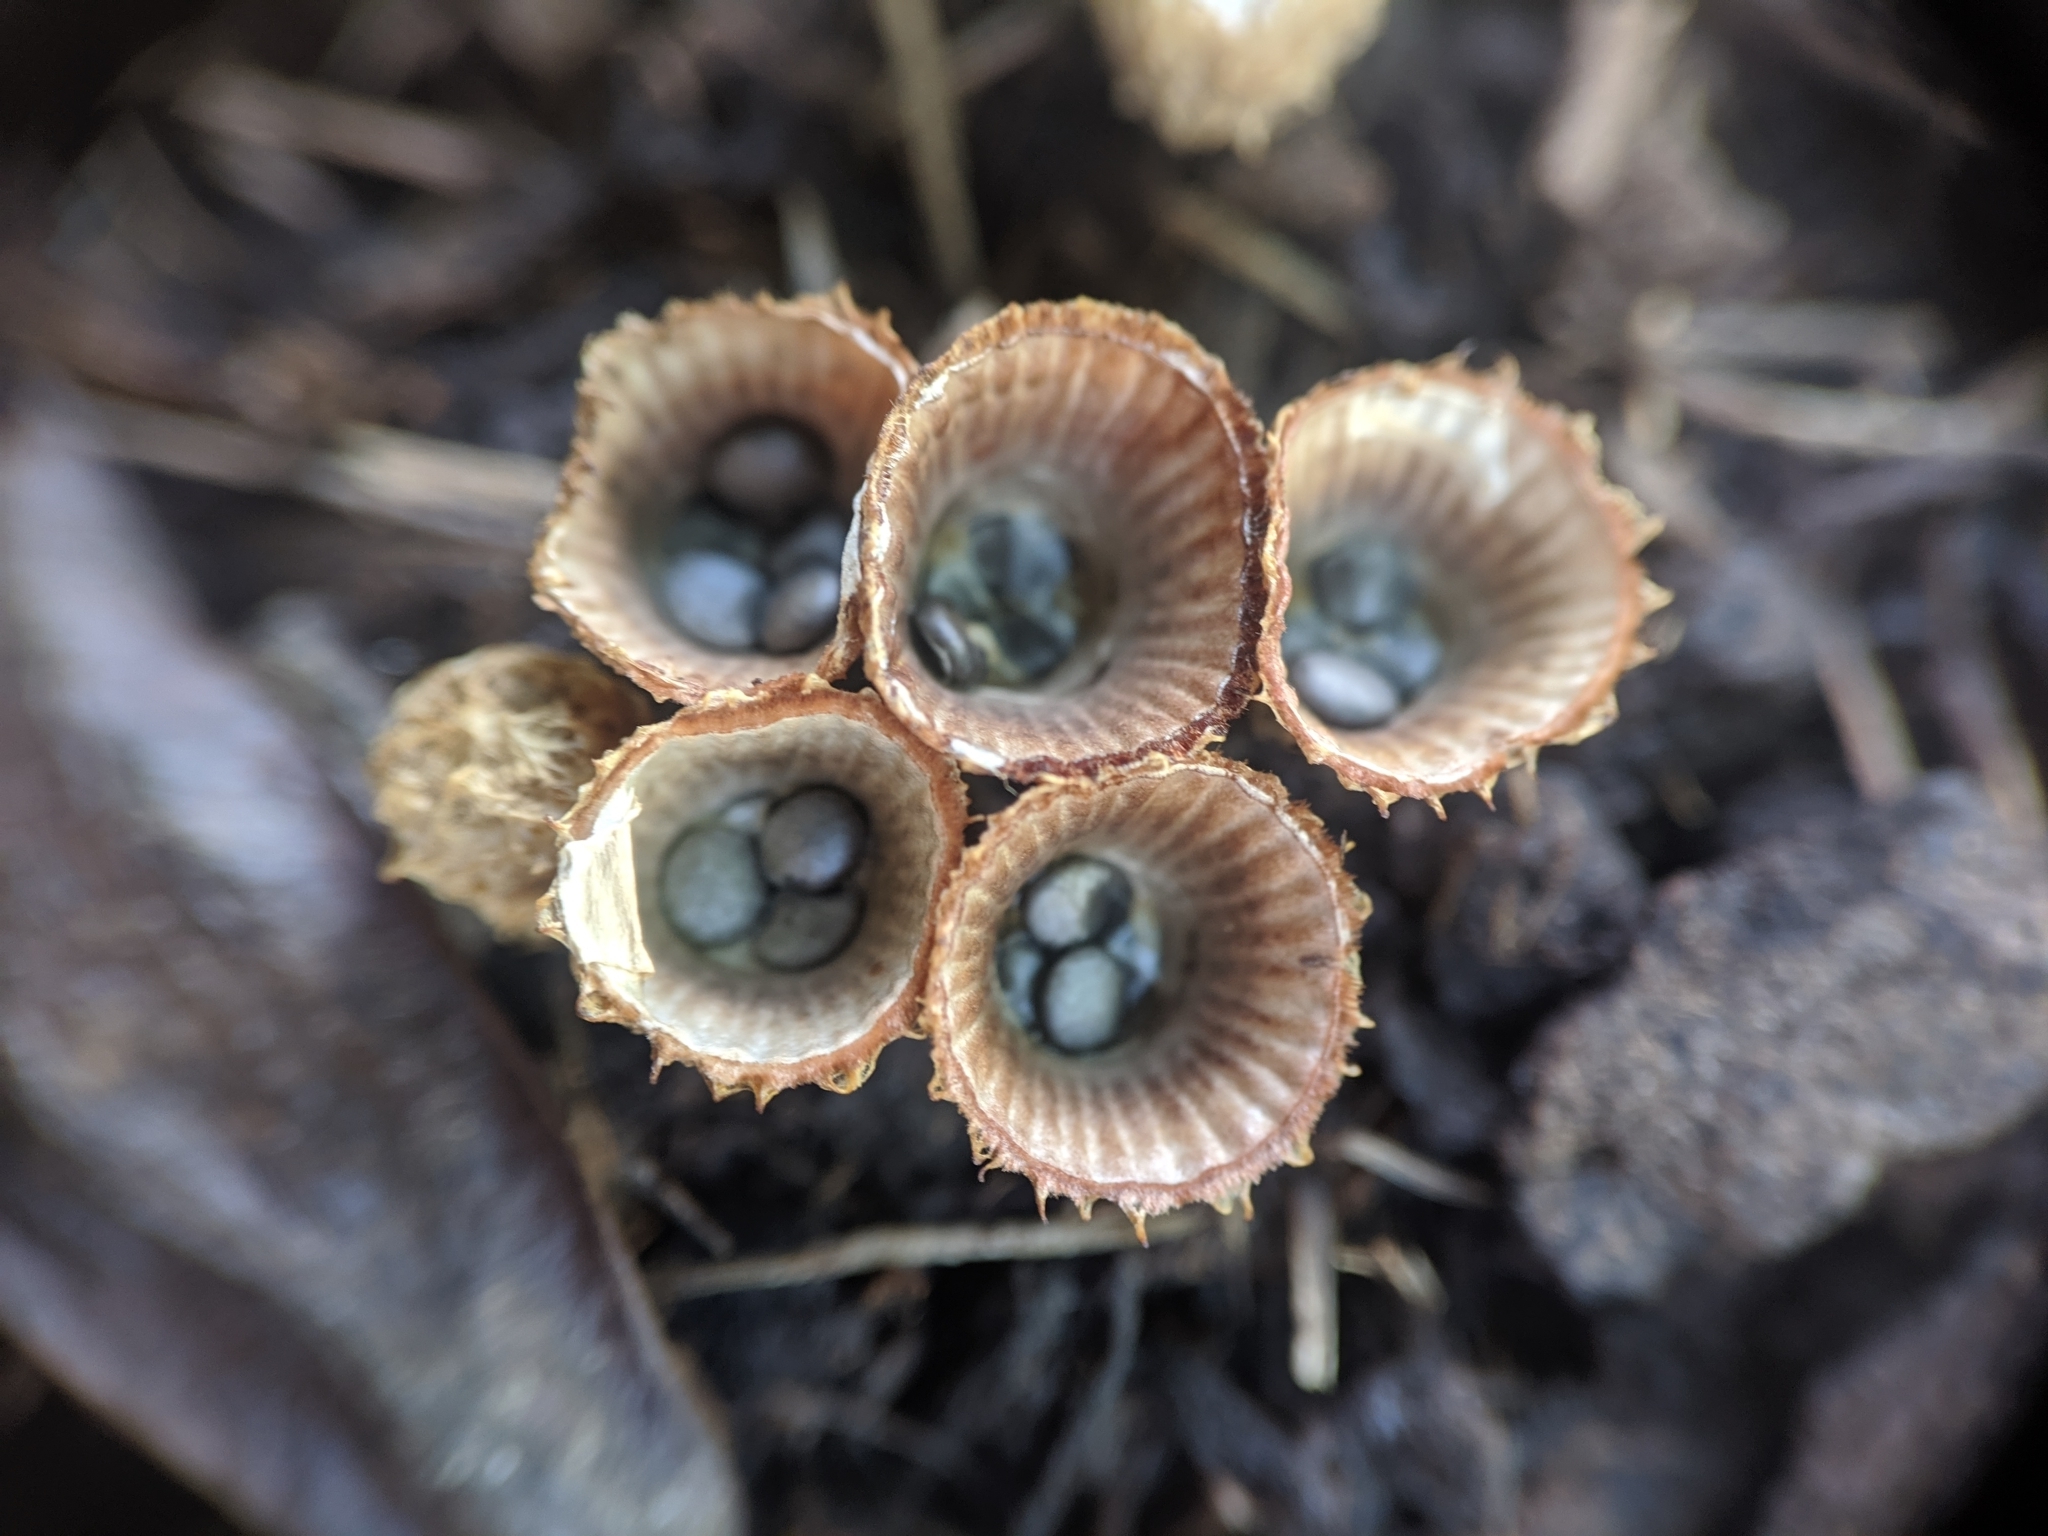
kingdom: Fungi
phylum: Basidiomycota
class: Agaricomycetes
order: Agaricales
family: Agaricaceae
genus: Cyathus
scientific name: Cyathus striatus
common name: Fluted bird's nest
